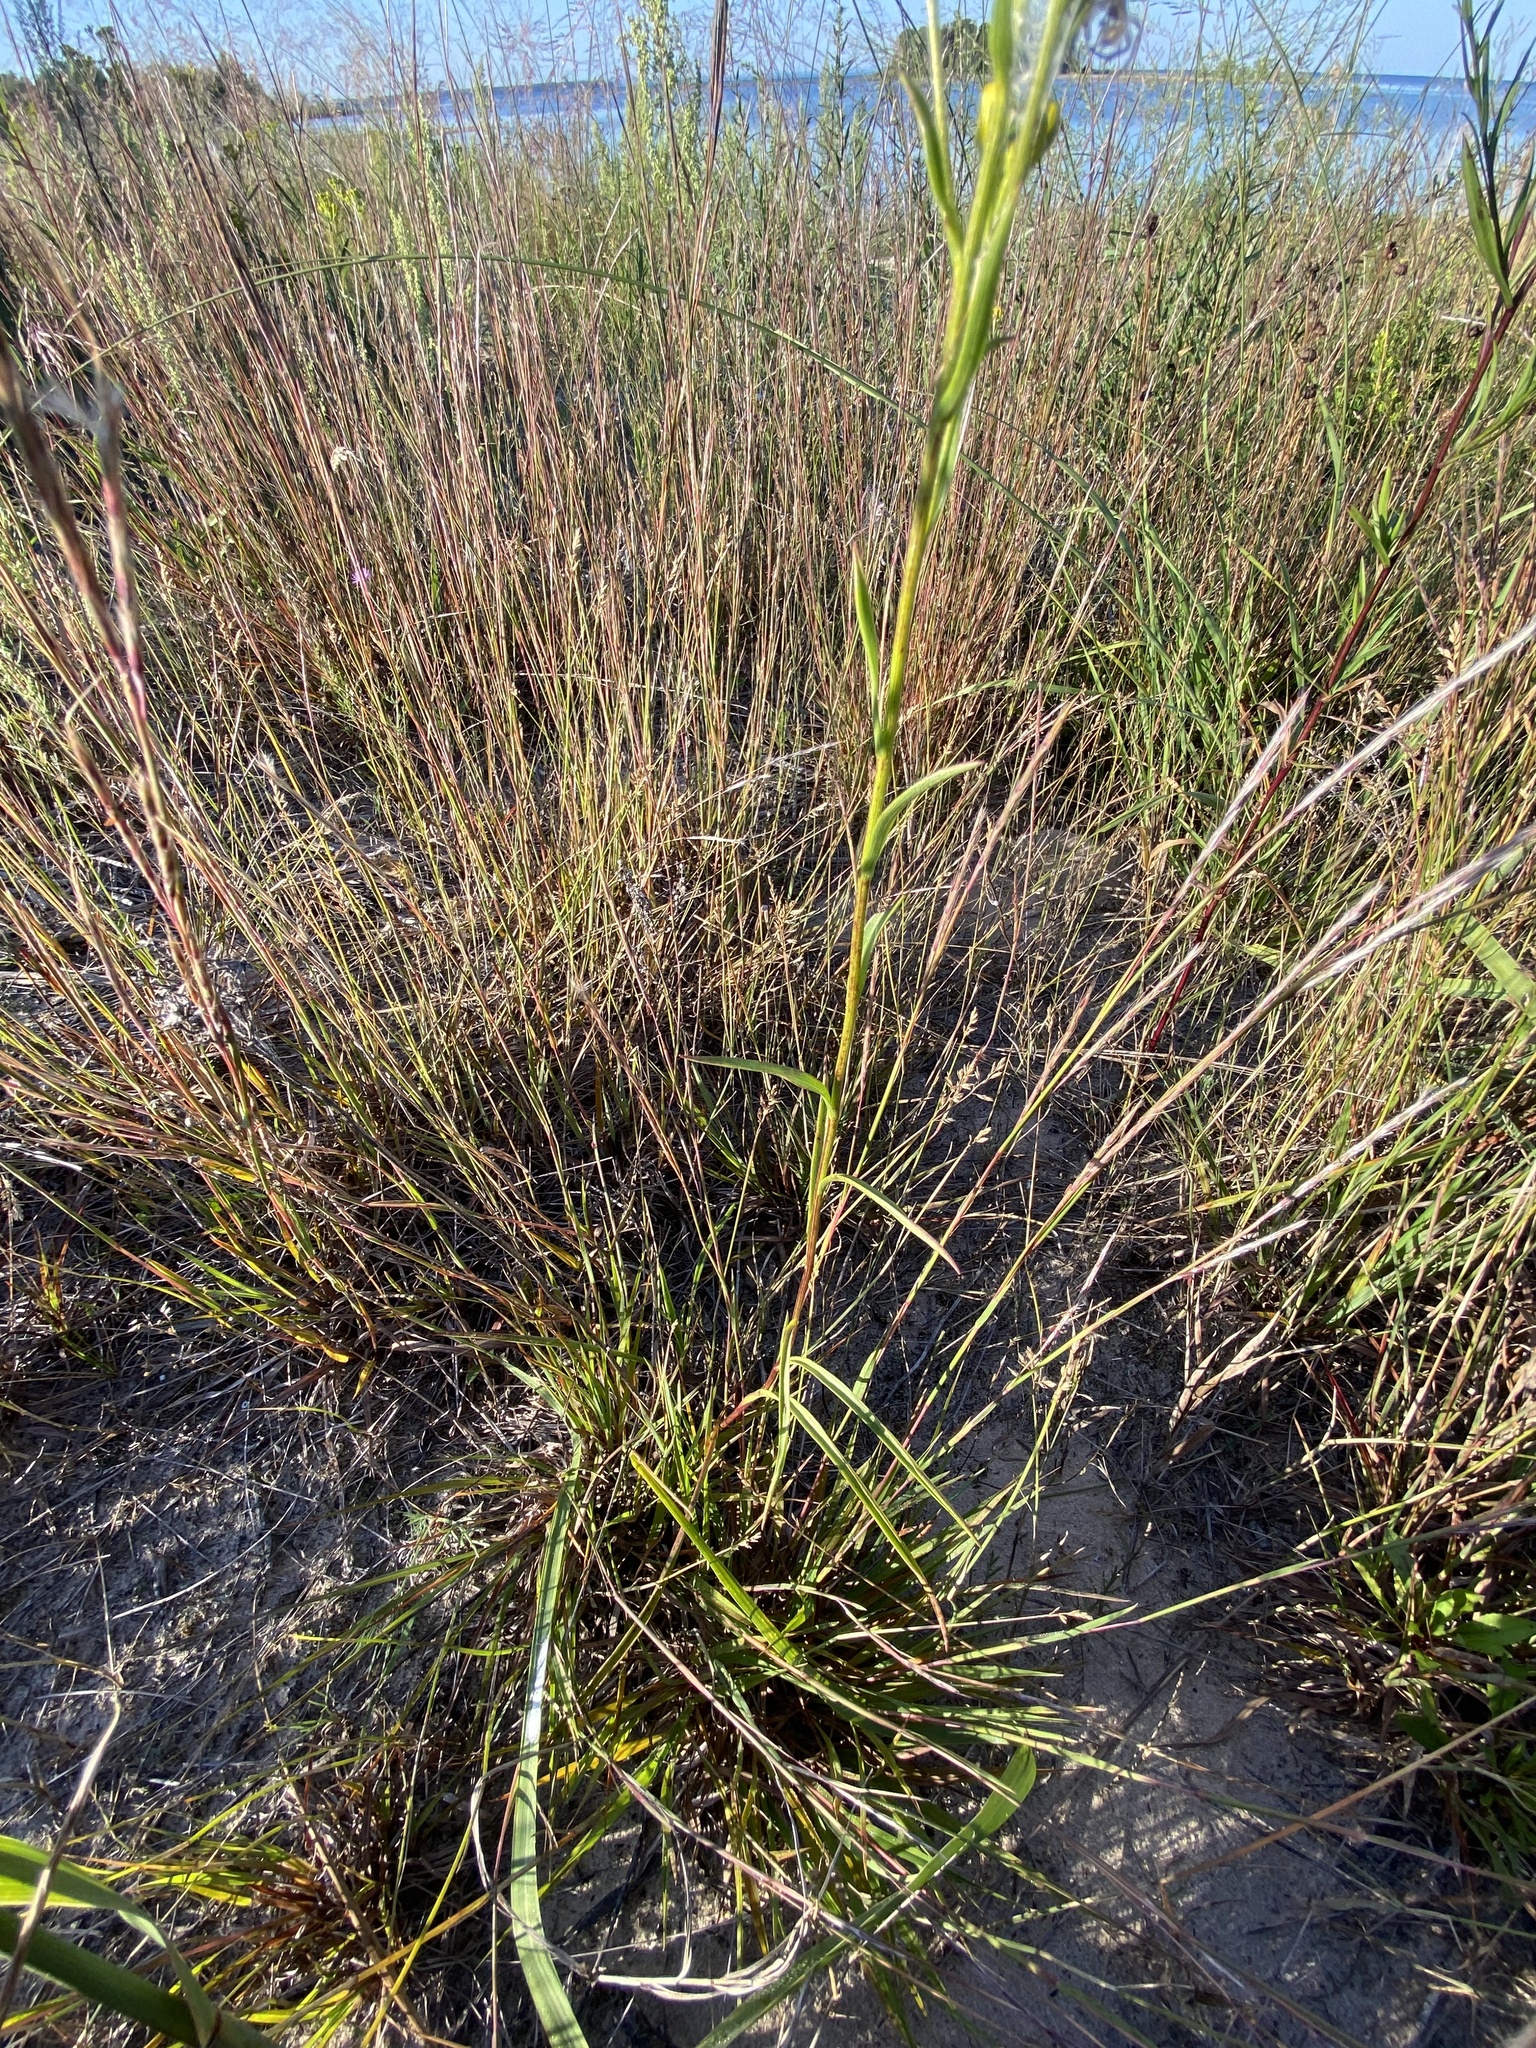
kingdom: Plantae
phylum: Tracheophyta
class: Magnoliopsida
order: Asterales
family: Asteraceae
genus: Solidago
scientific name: Solidago houghtonii
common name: Houghton's goldenrod
